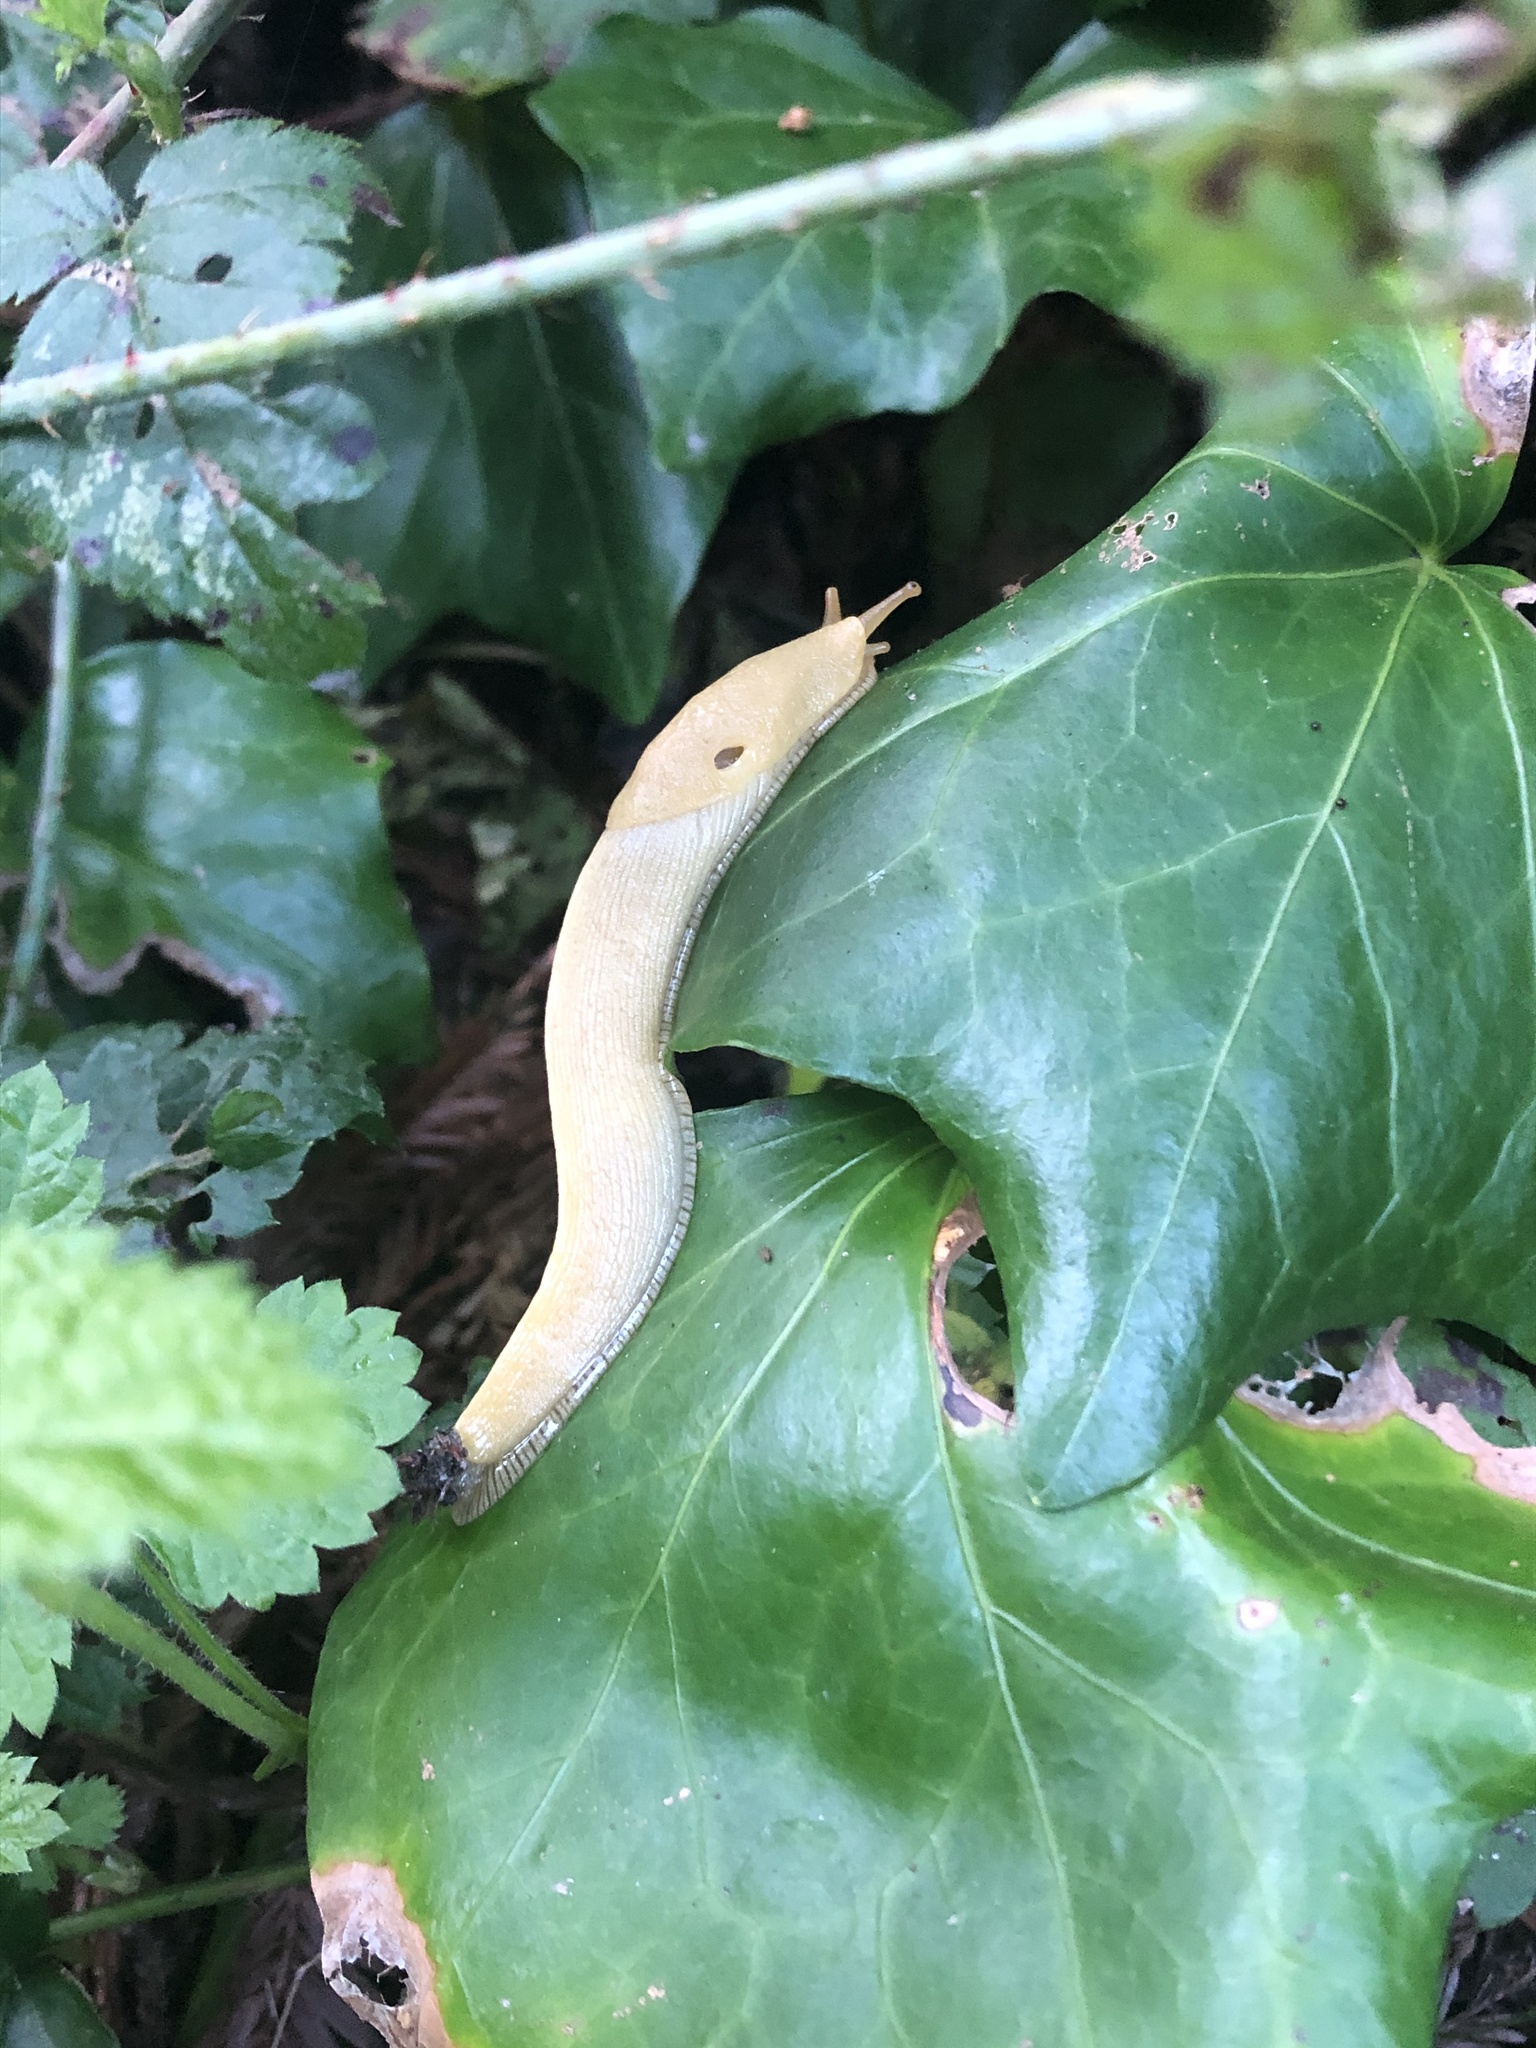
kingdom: Animalia
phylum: Mollusca
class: Gastropoda
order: Stylommatophora
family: Ariolimacidae
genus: Ariolimax
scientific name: Ariolimax columbianus
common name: Pacific banana slug
